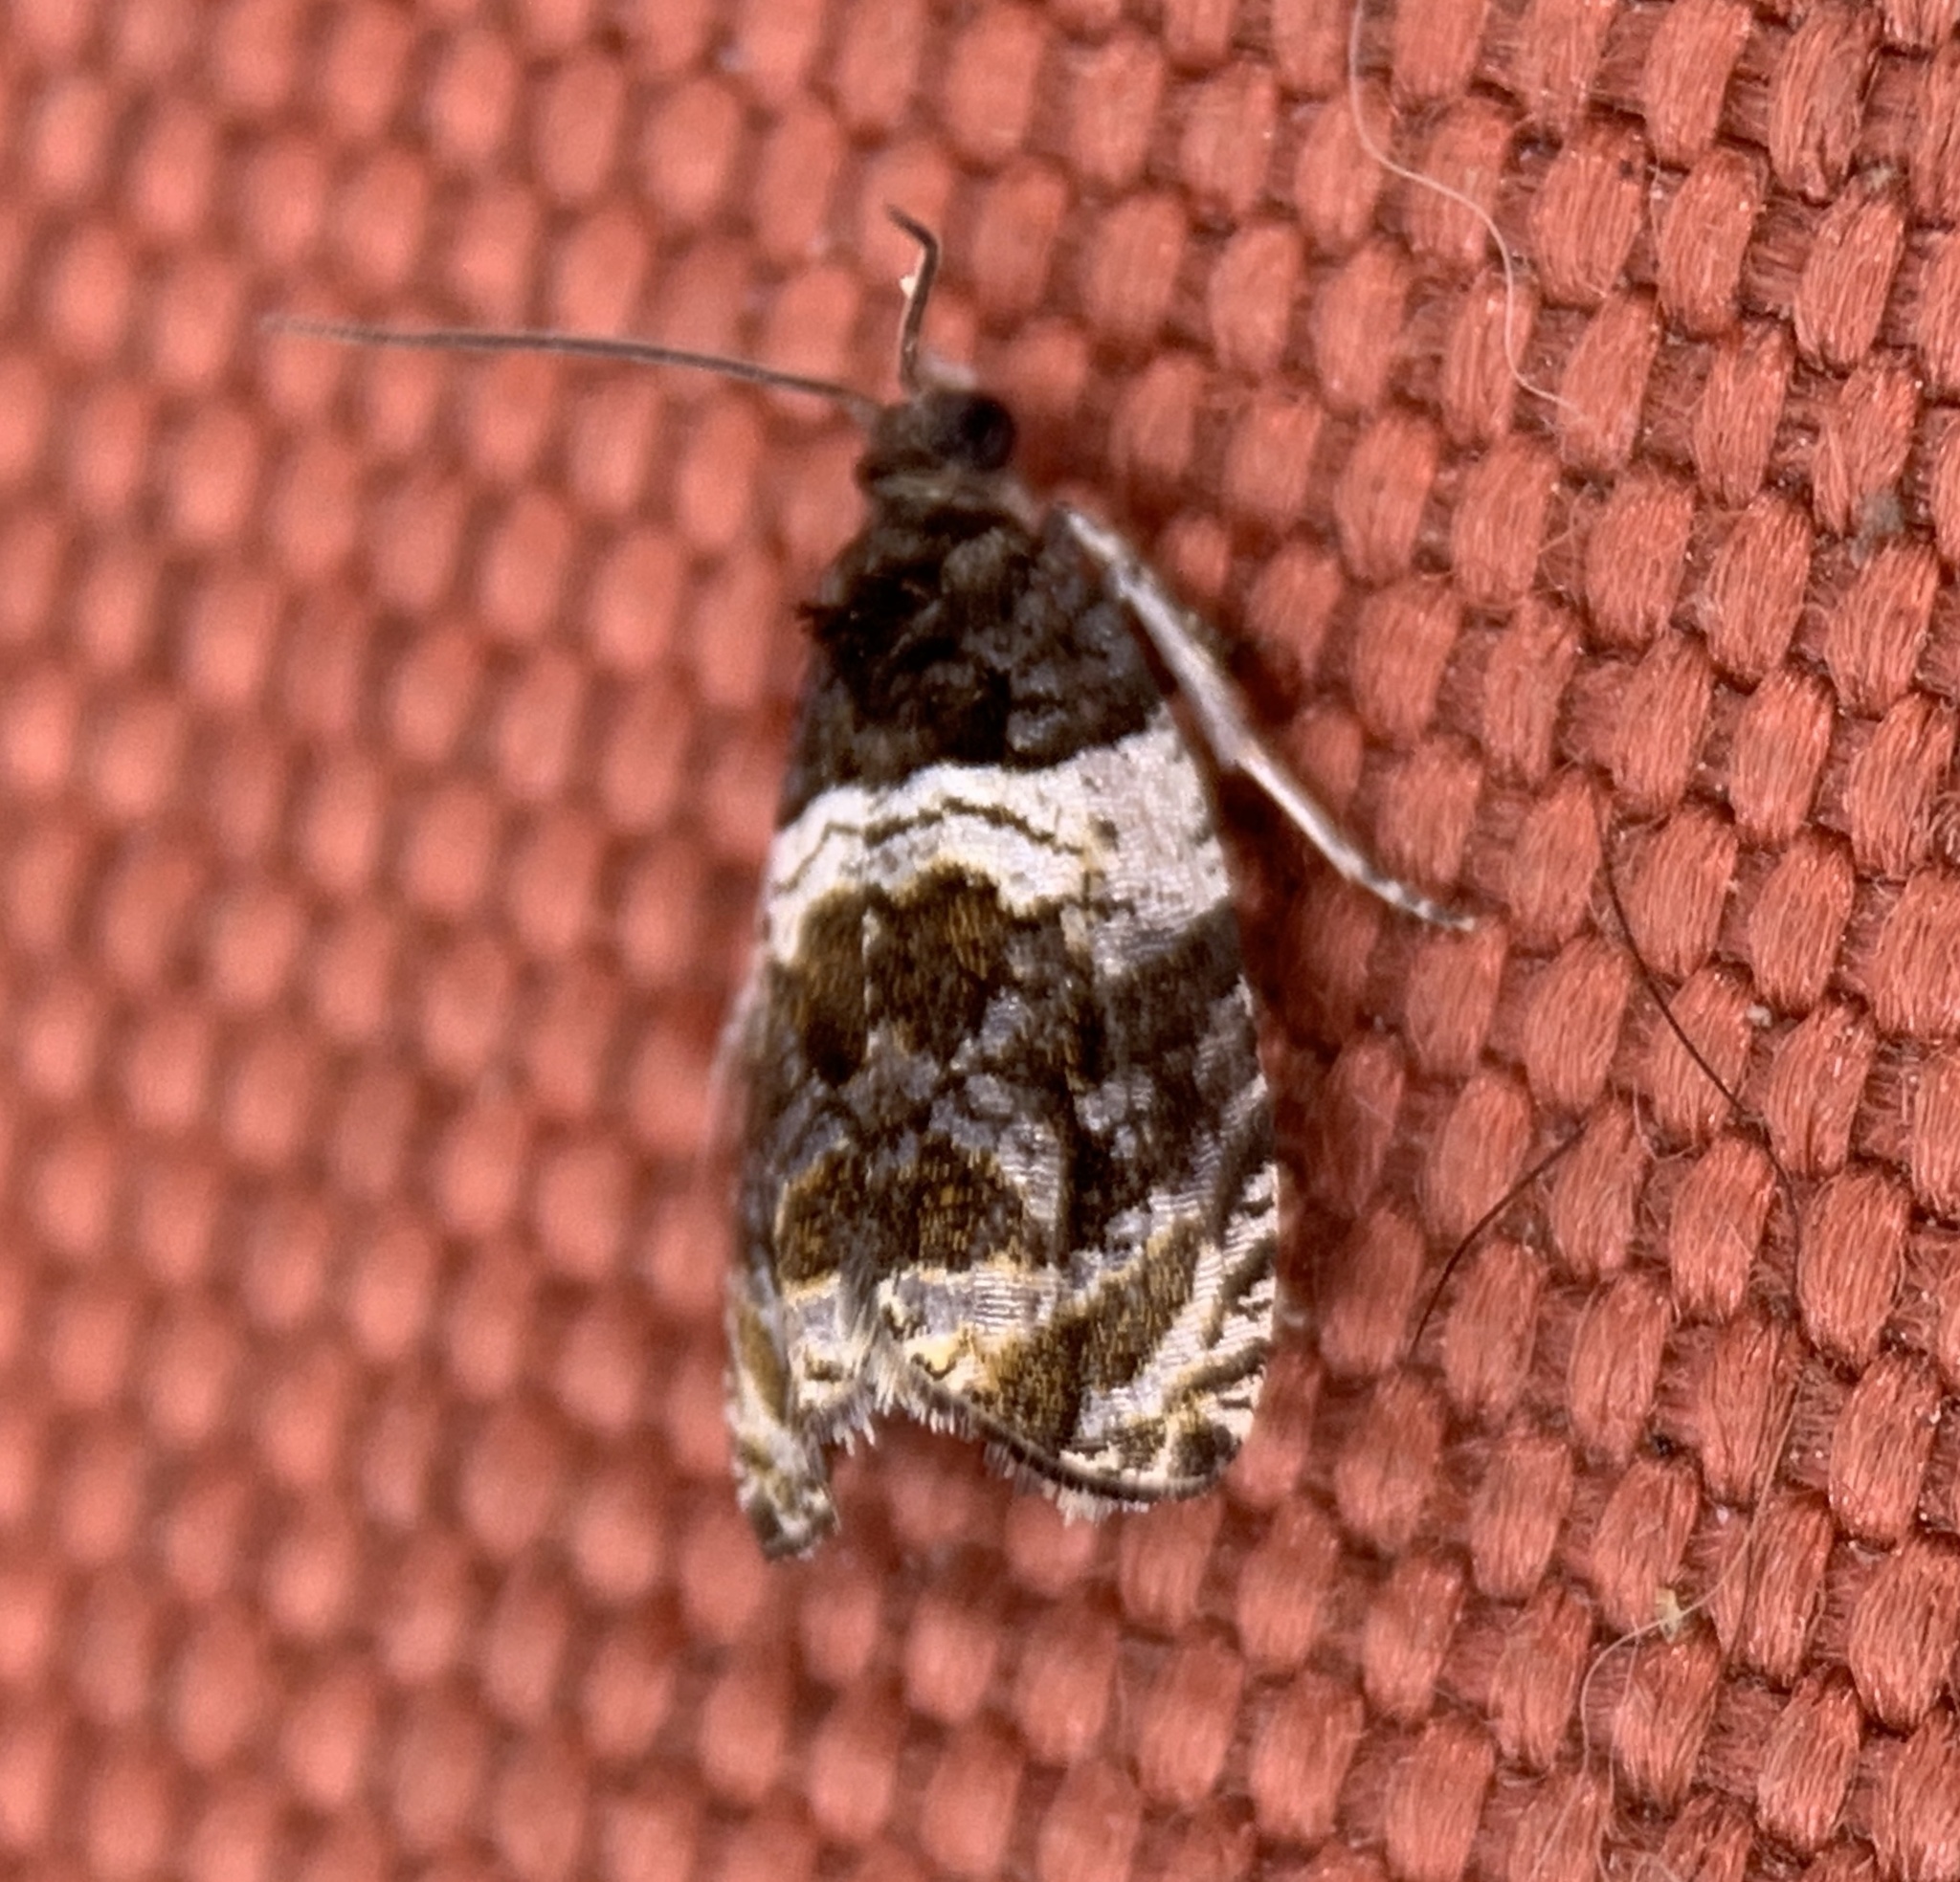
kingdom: Animalia
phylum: Arthropoda
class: Insecta
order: Lepidoptera
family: Tortricidae
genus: Olethreutes
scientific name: Olethreutes fasciatana
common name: Banded olethreutes moth
